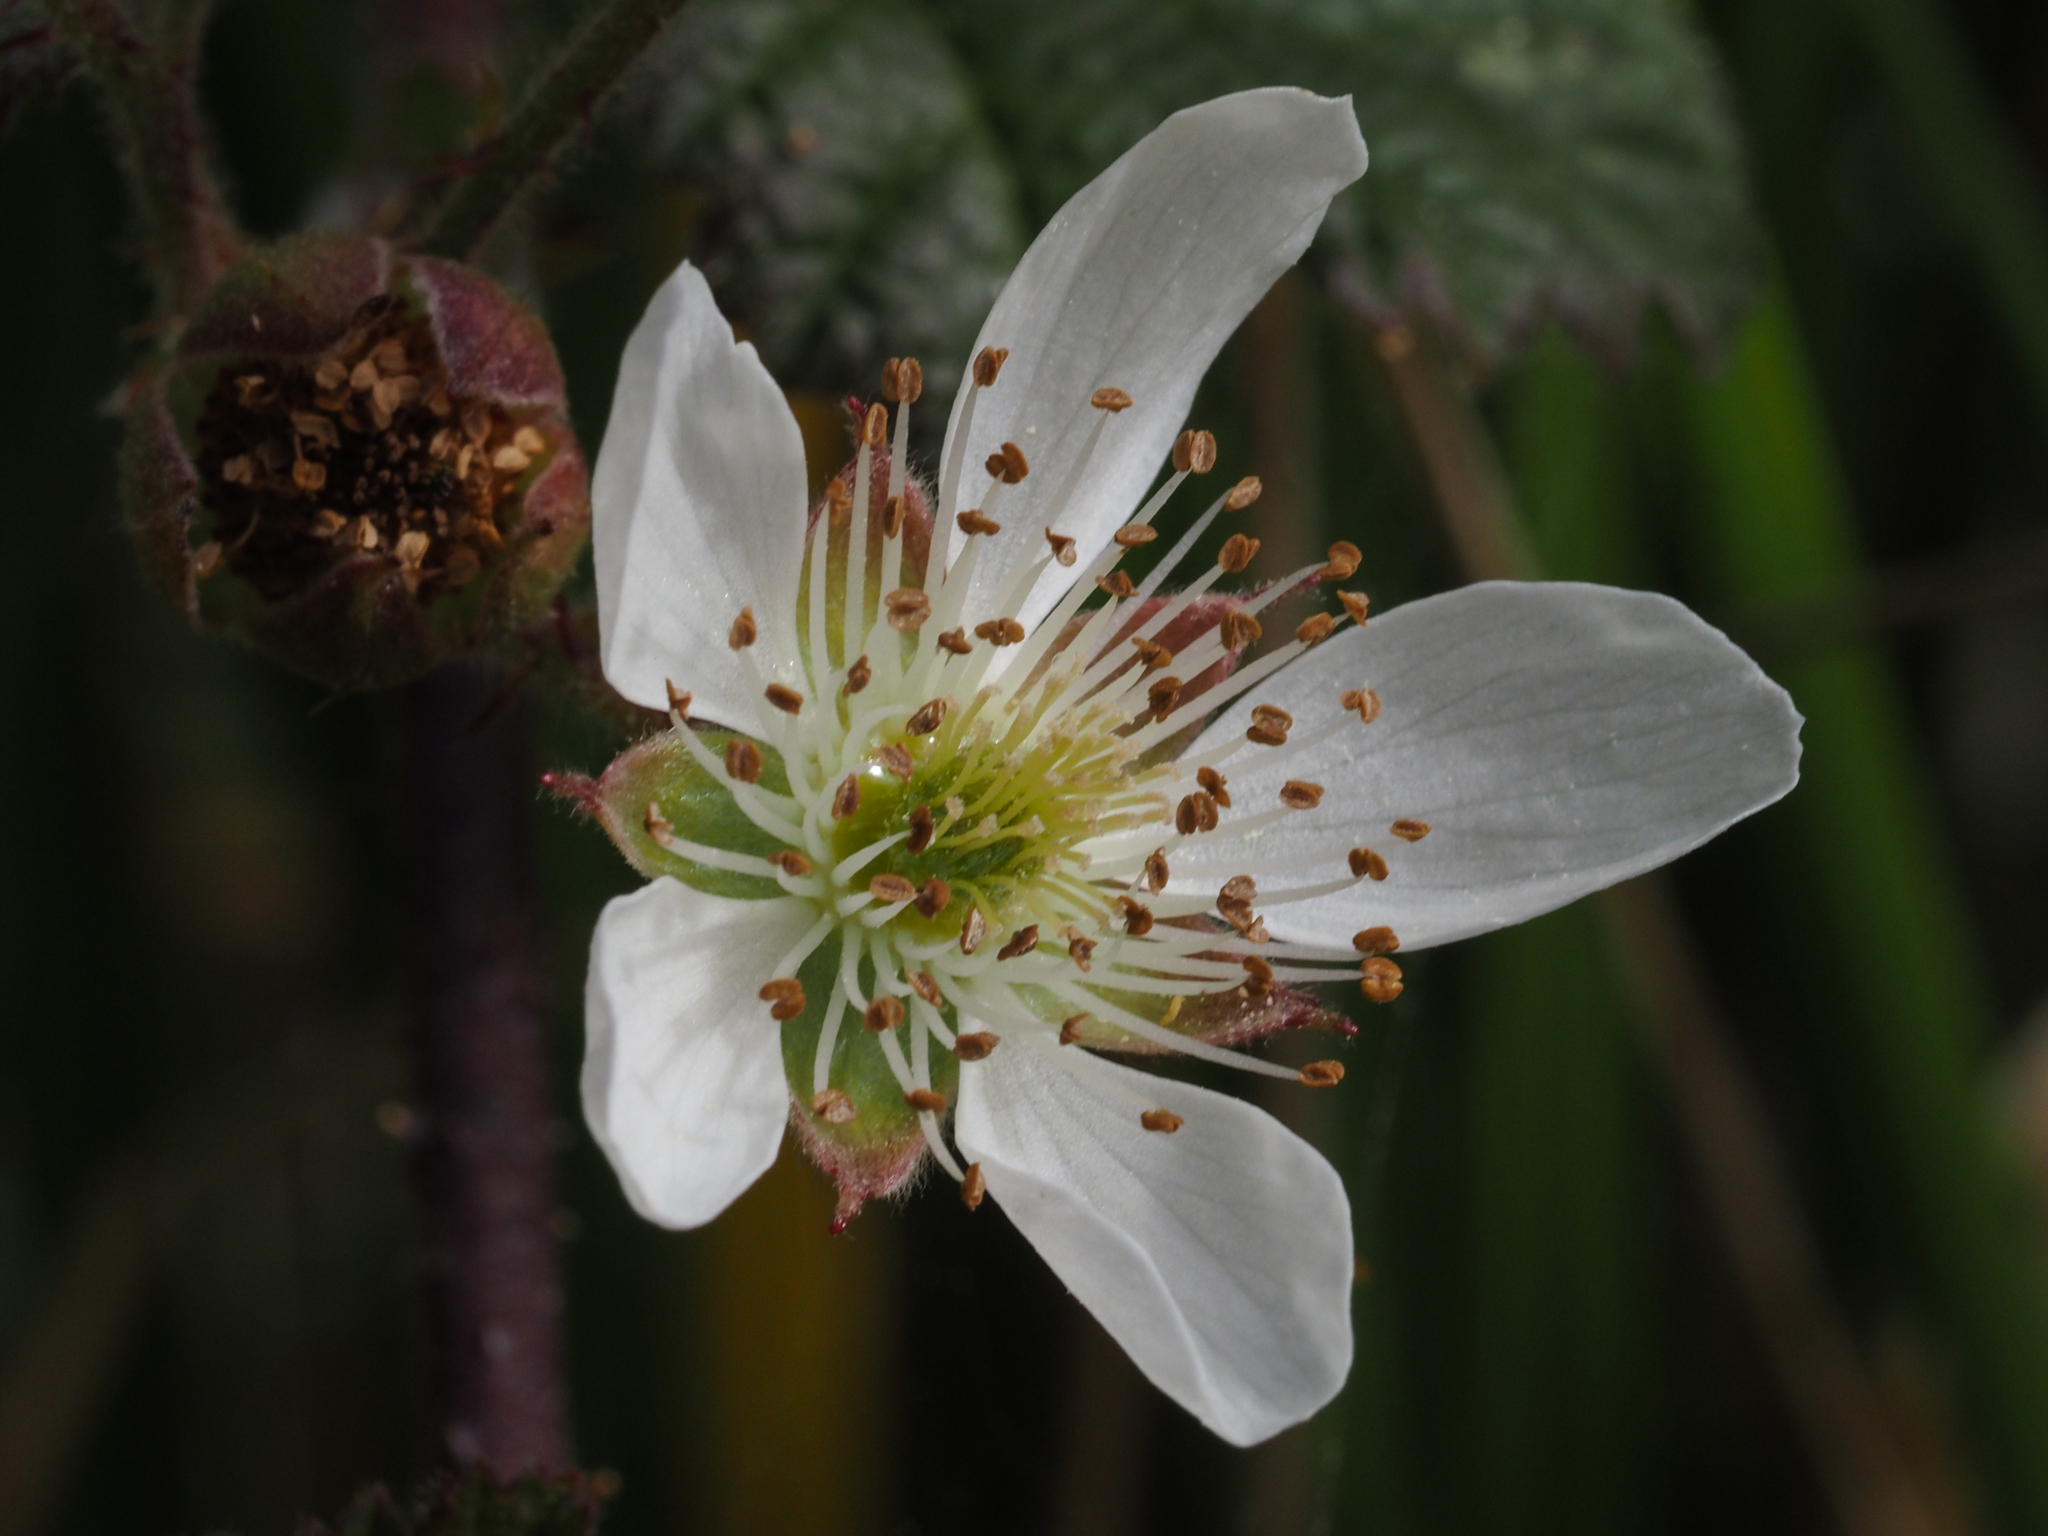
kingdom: Plantae
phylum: Tracheophyta
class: Magnoliopsida
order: Rosales
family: Rosaceae
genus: Rubus
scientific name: Rubus ursinus
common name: Pacific blackberry
